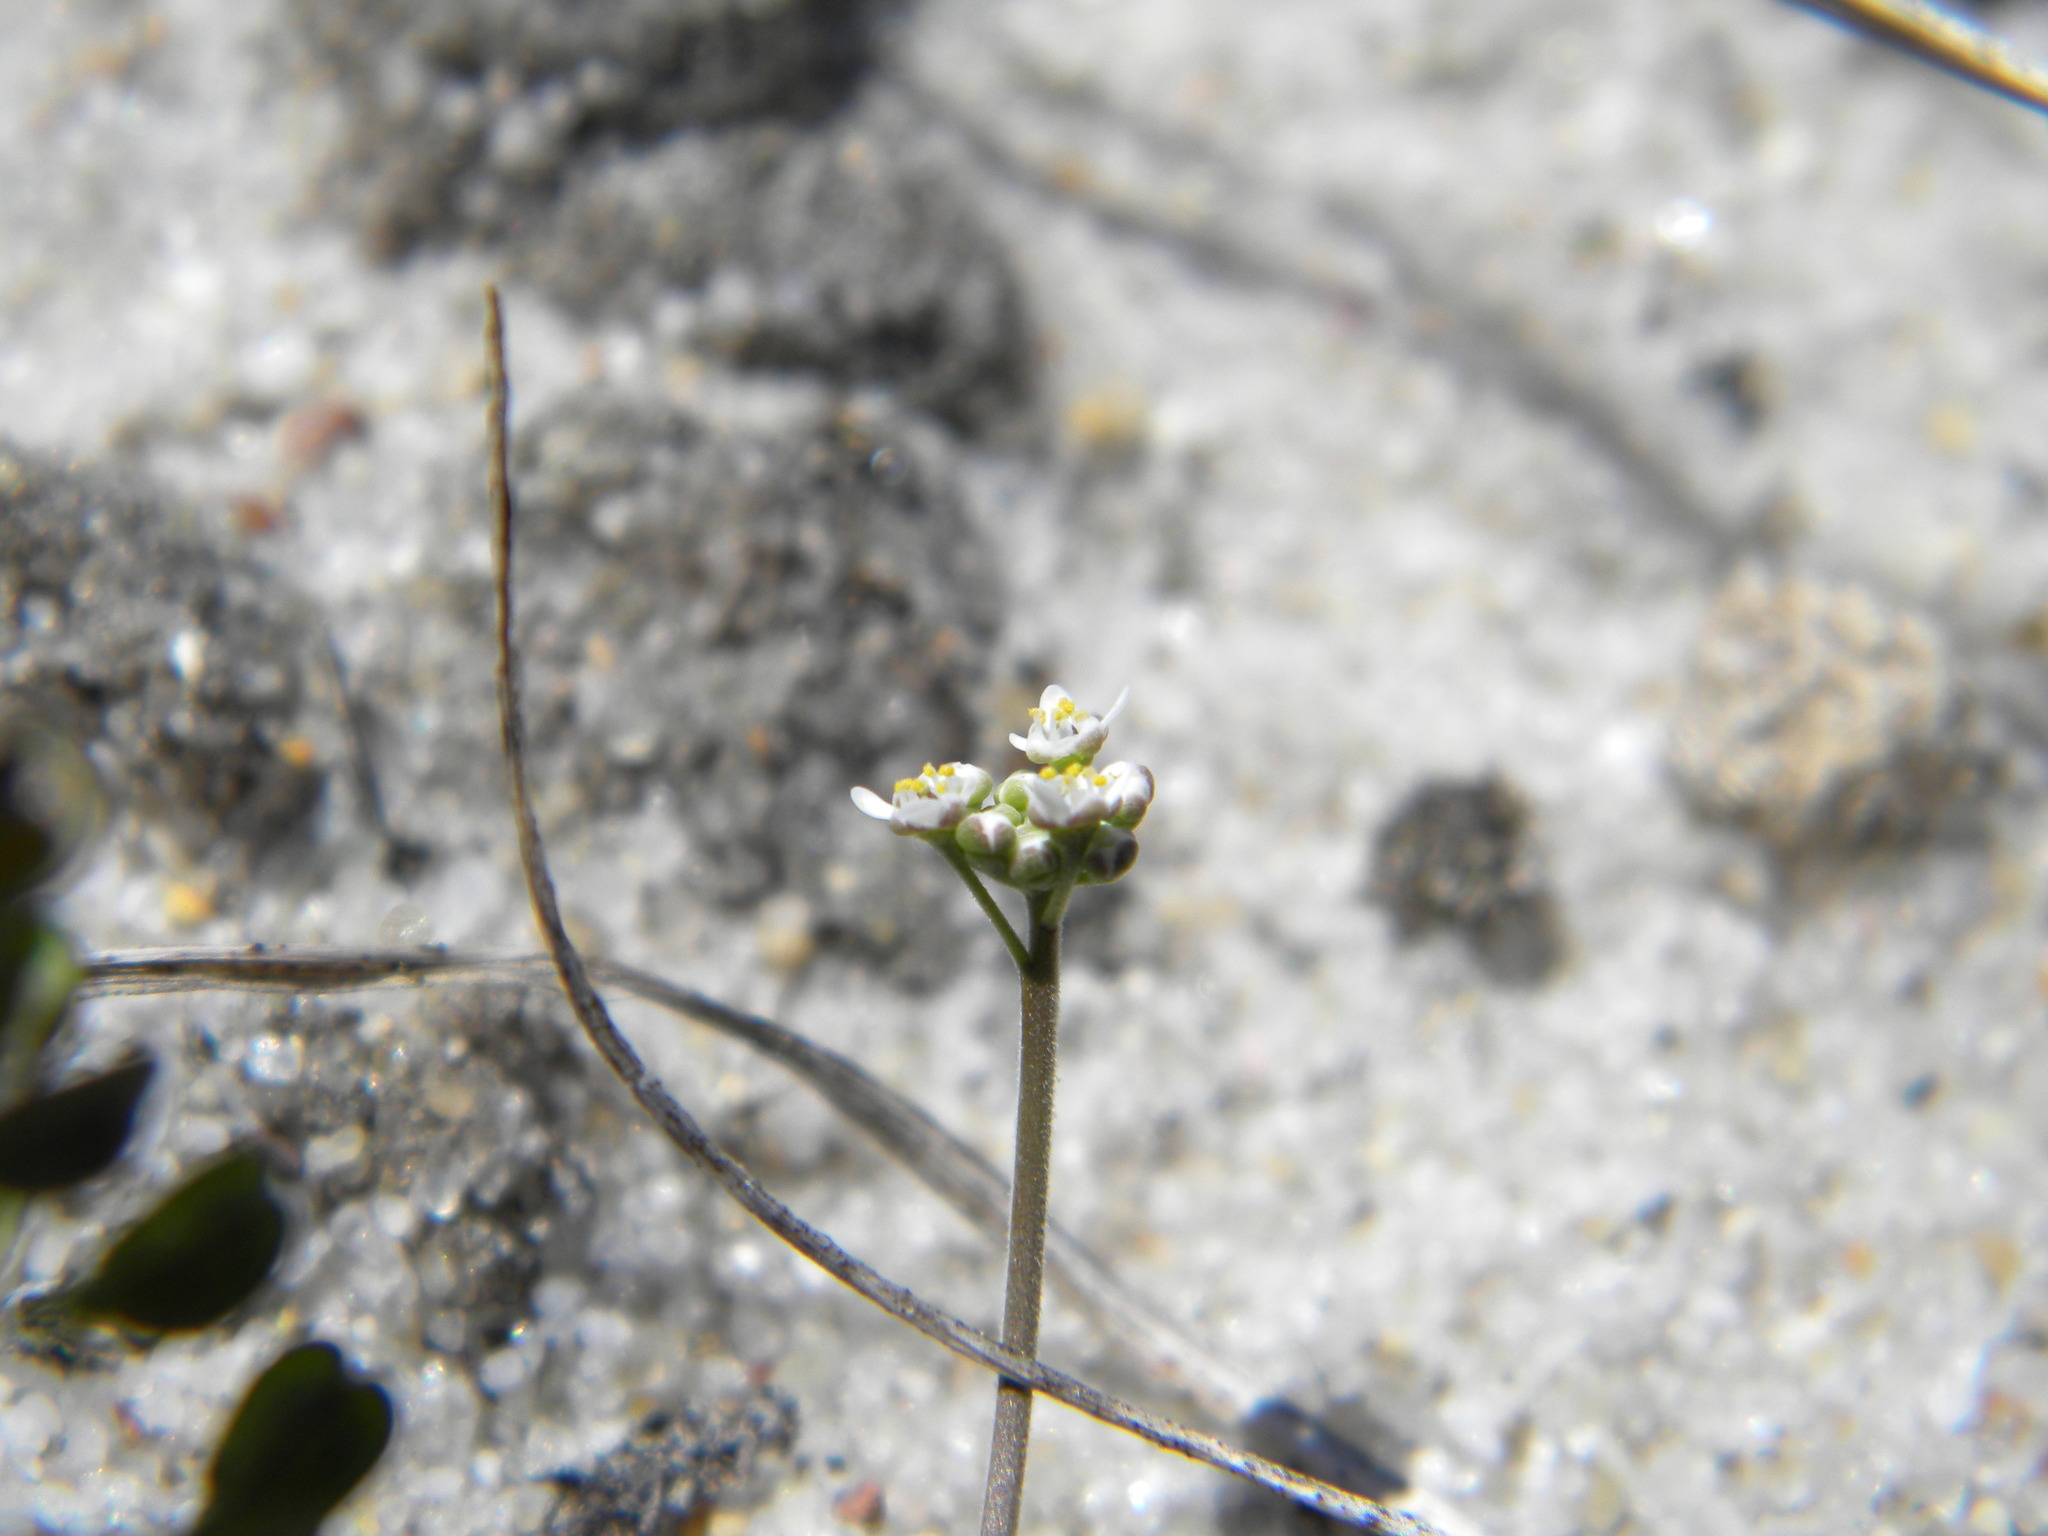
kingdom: Plantae
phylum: Tracheophyta
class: Magnoliopsida
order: Brassicales
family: Brassicaceae
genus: Teesdalia
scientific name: Teesdalia nudicaulis
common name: Shepherd's cress
